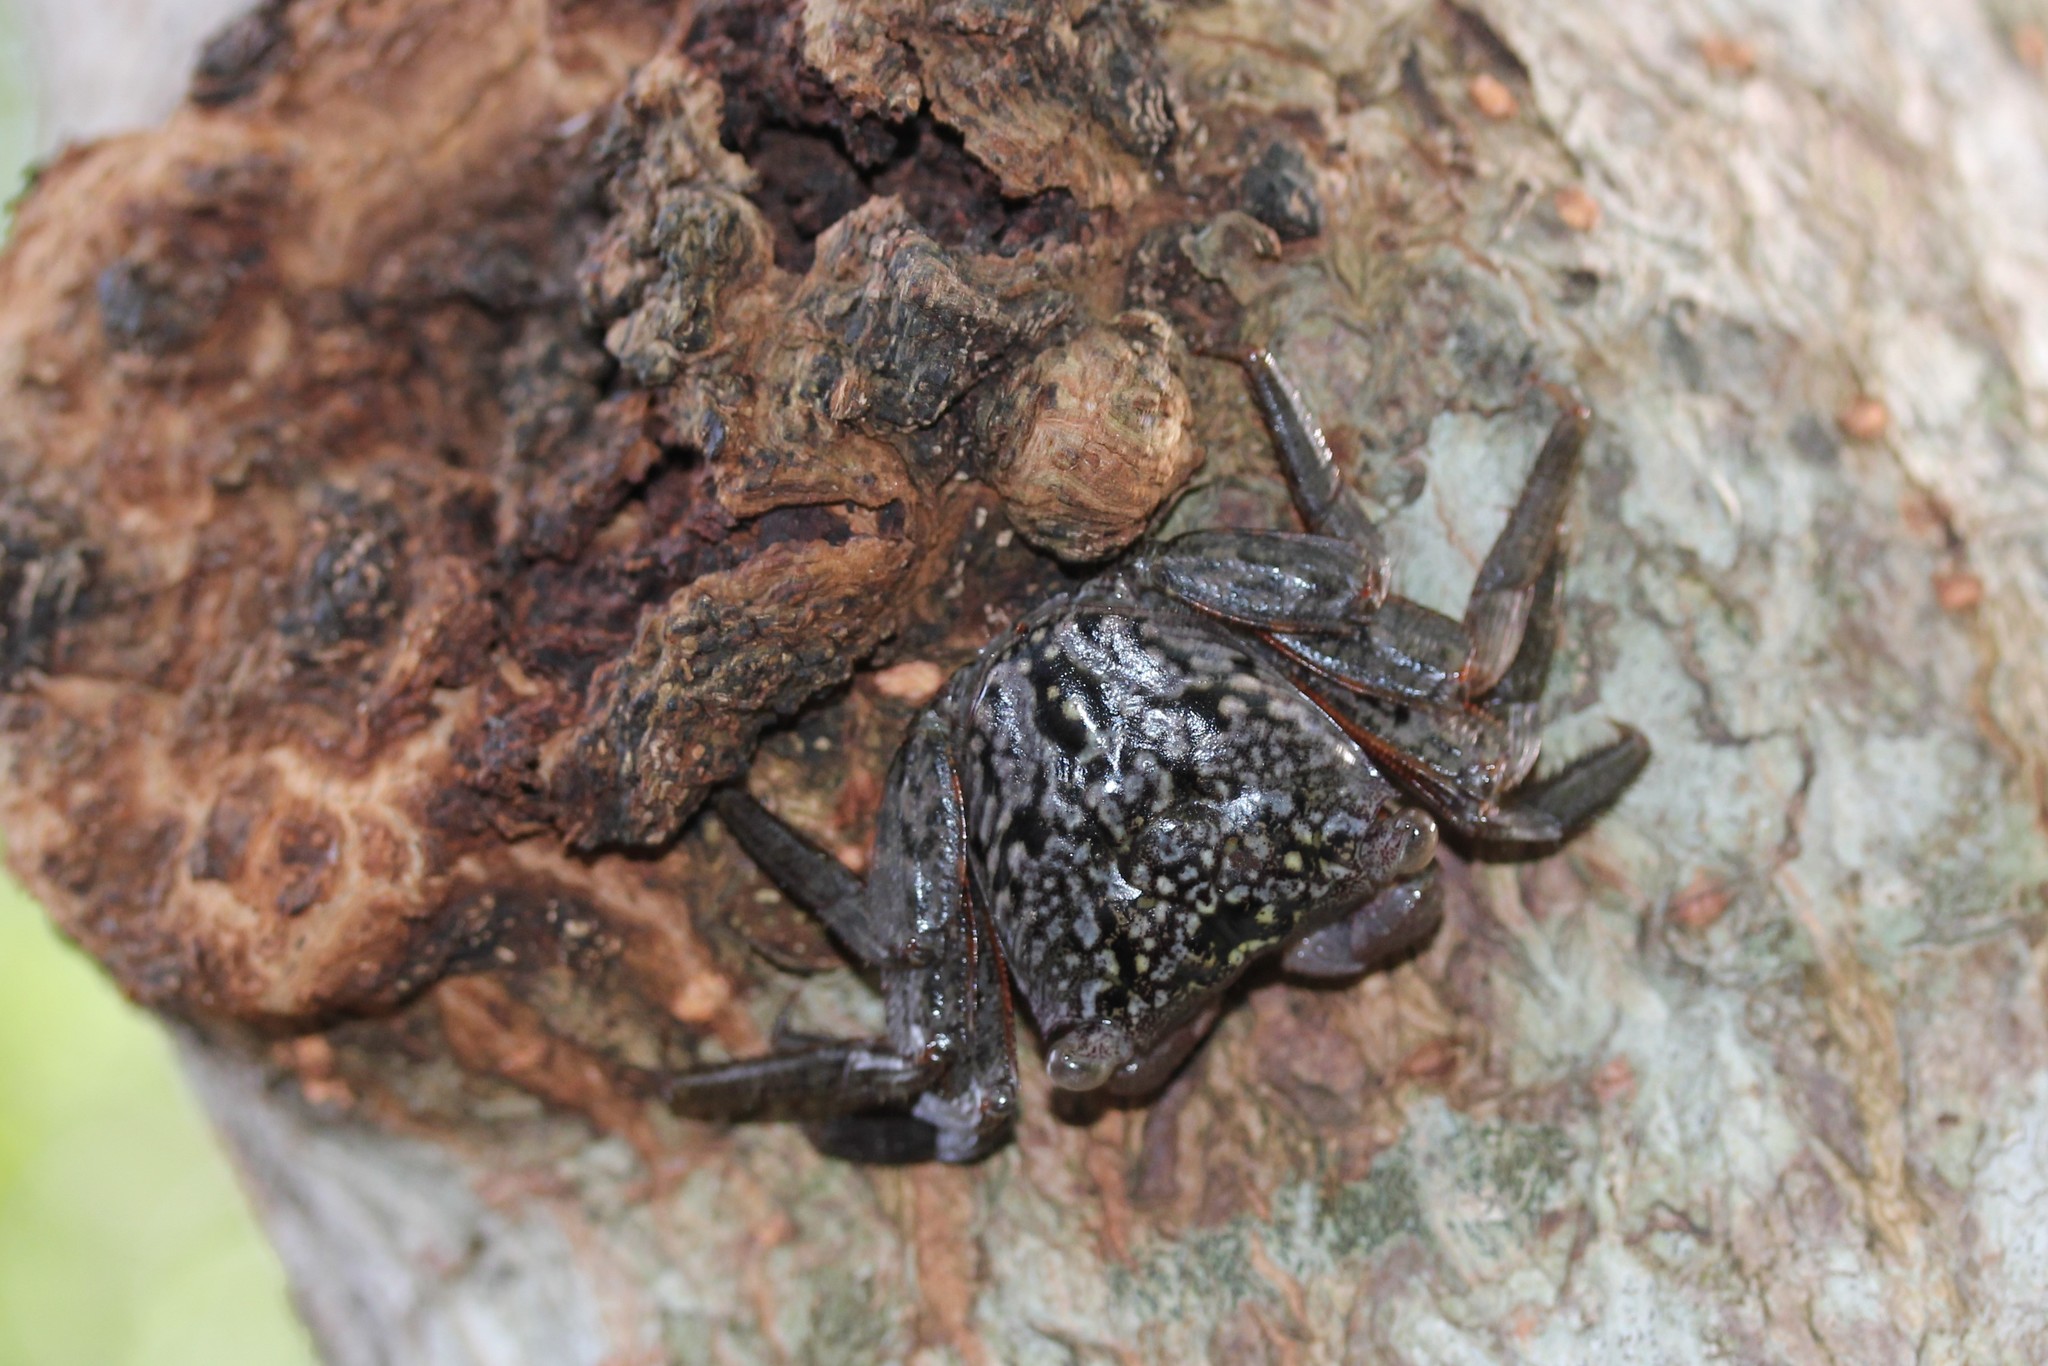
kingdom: Animalia
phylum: Arthropoda
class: Malacostraca
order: Decapoda
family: Sesarmidae
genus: Aratus
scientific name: Aratus pisonii
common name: Mangrove crab
